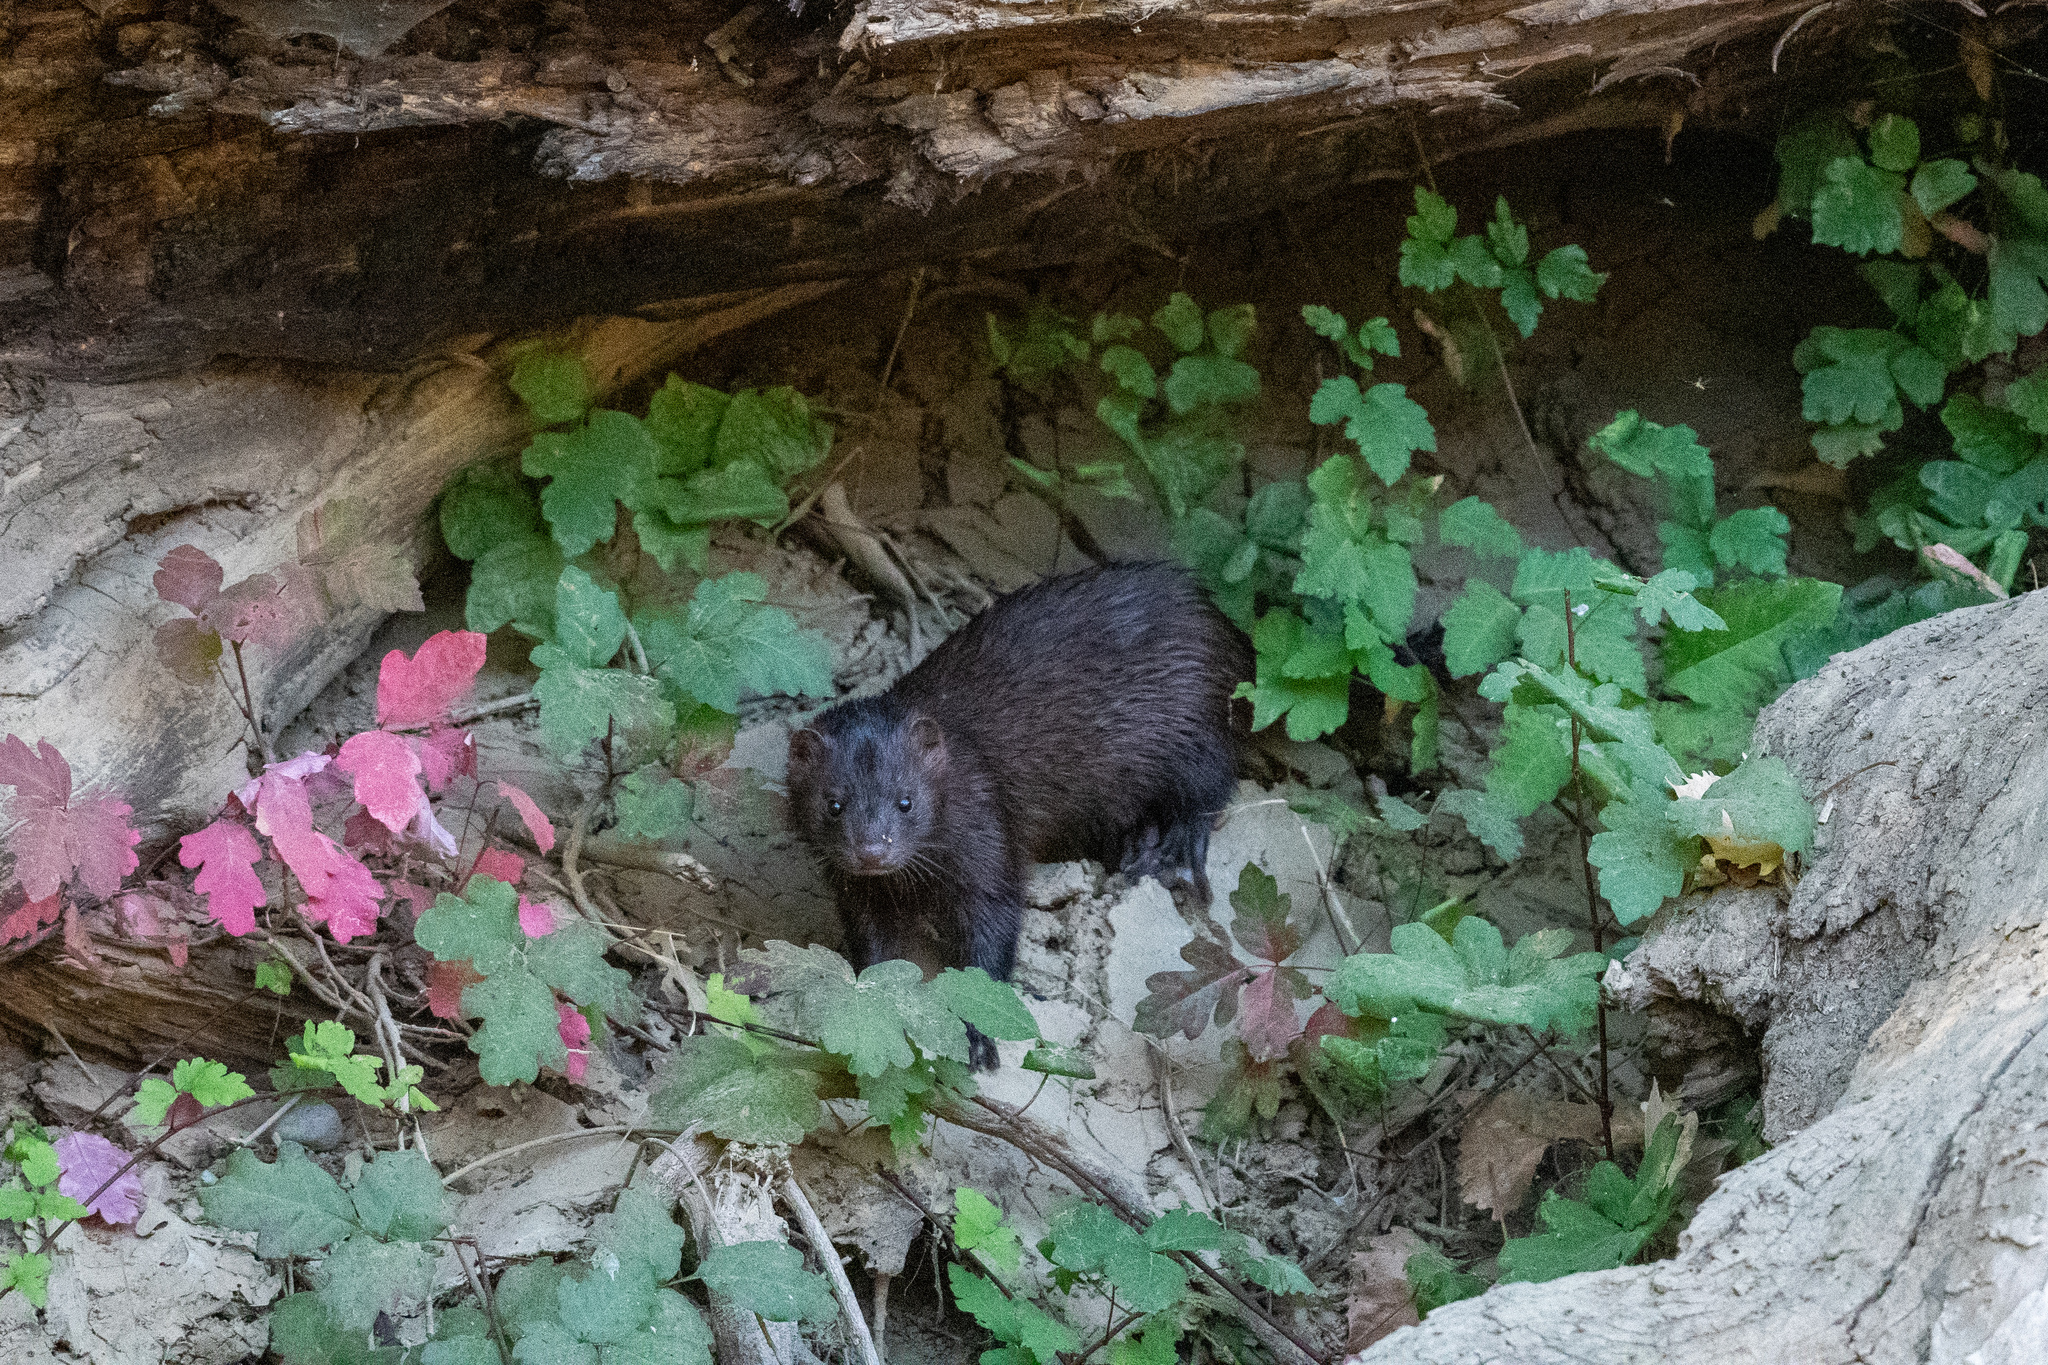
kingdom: Animalia
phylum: Chordata
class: Mammalia
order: Carnivora
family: Mustelidae
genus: Mustela
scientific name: Mustela
